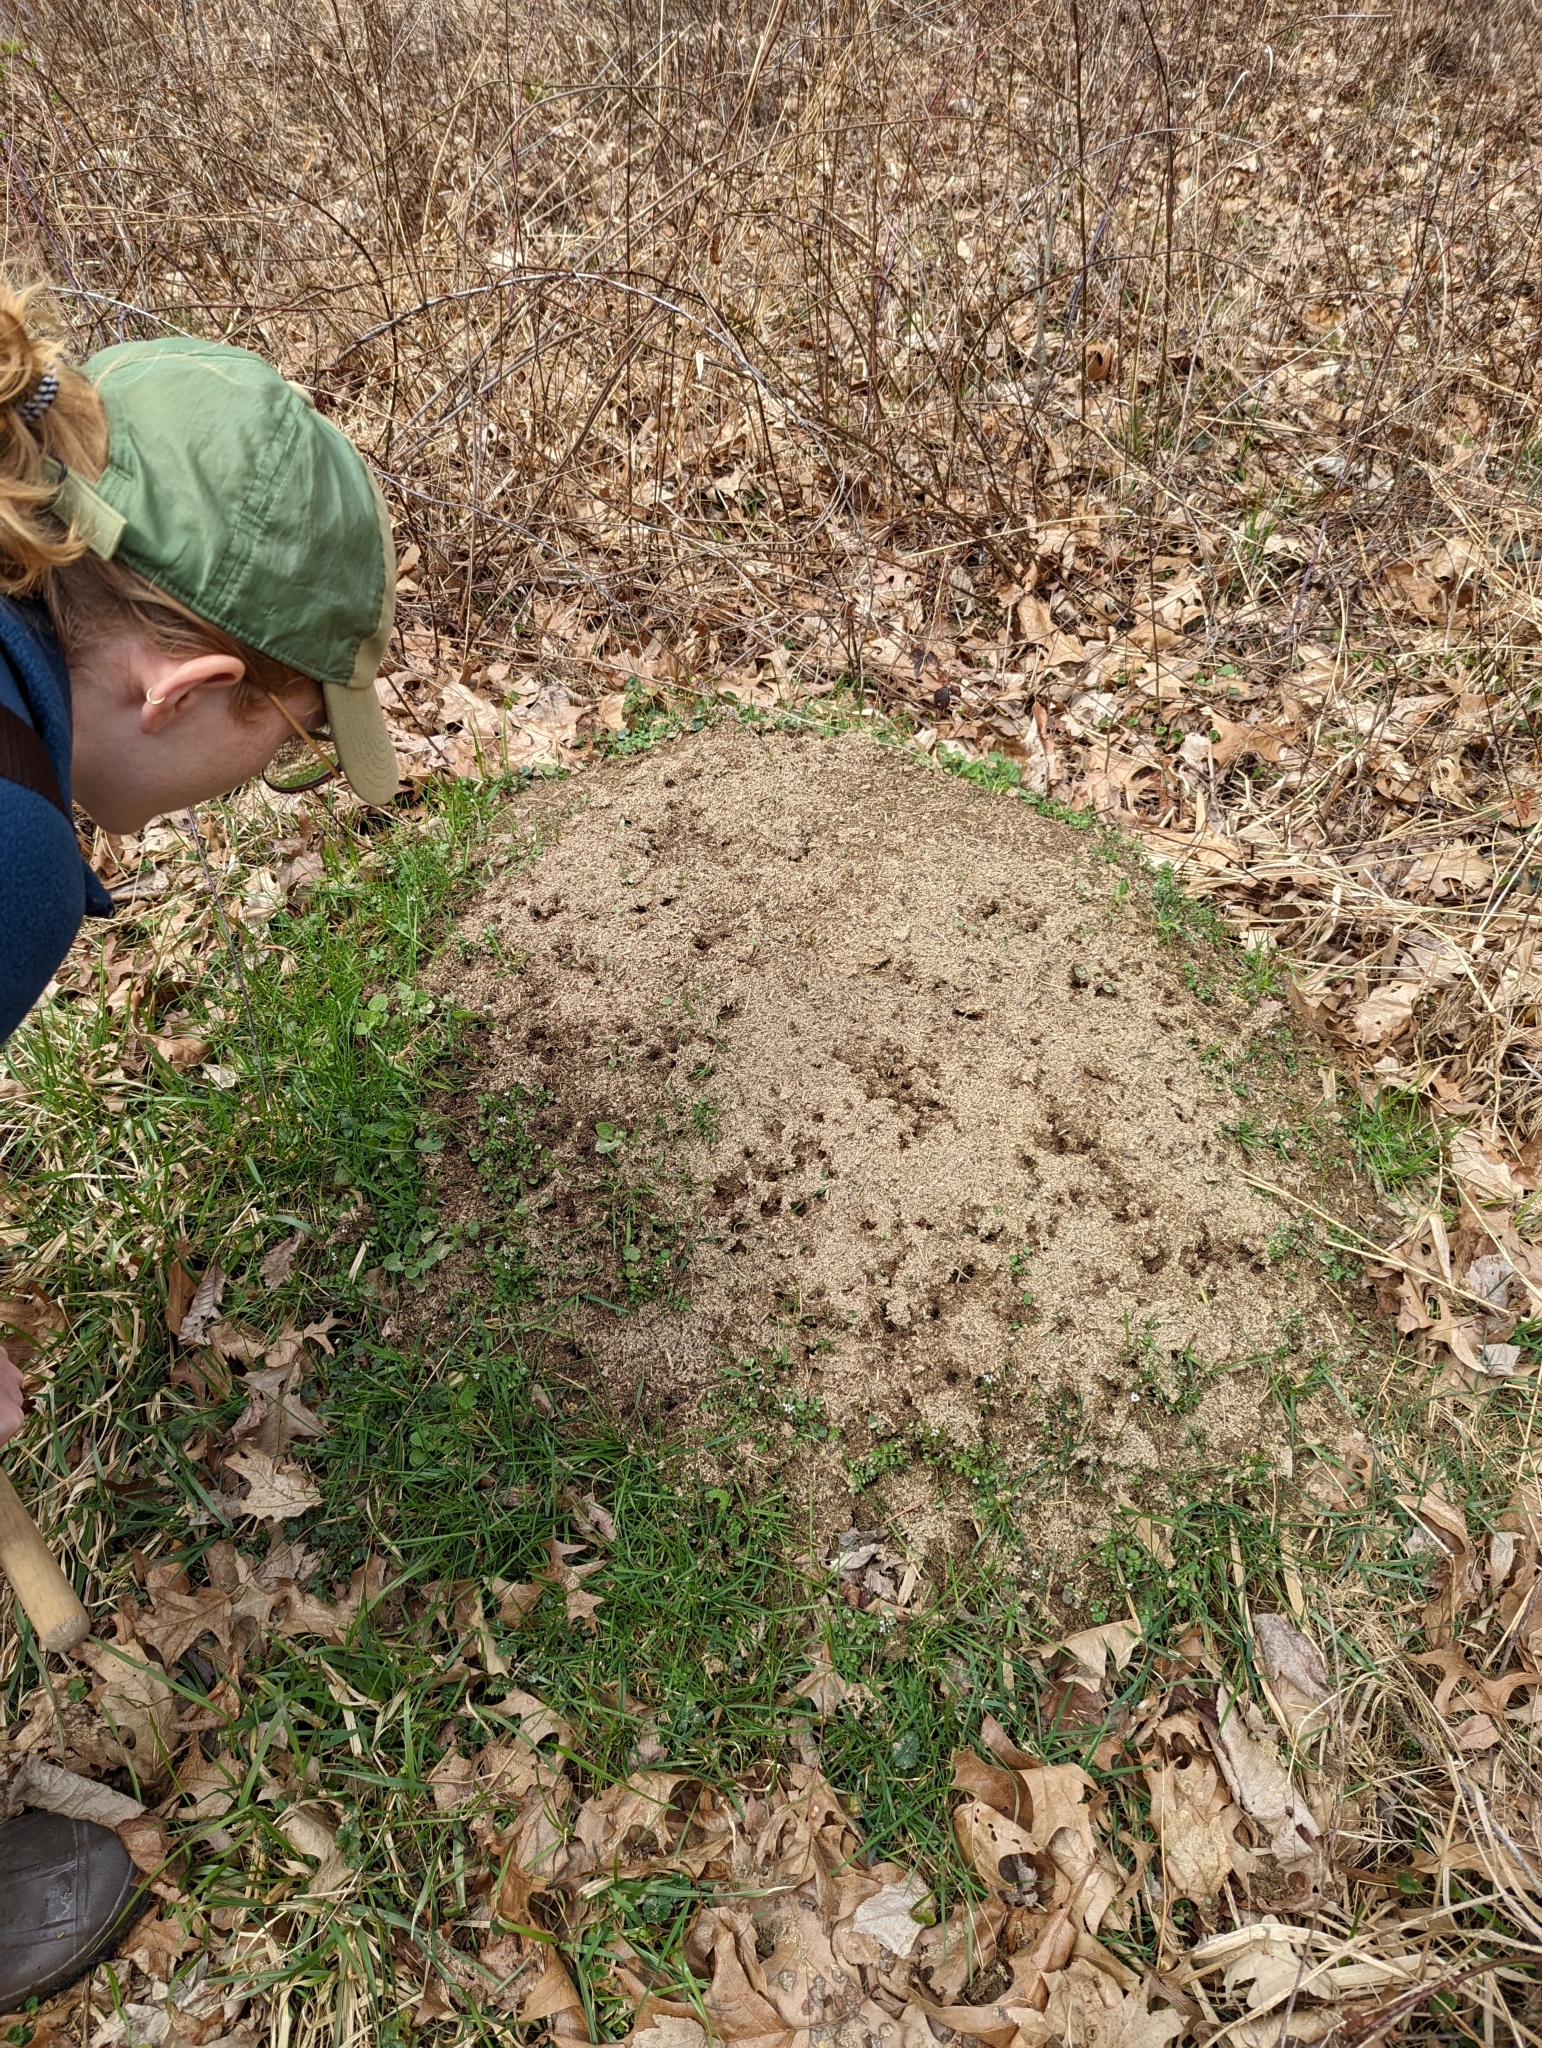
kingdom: Animalia
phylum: Arthropoda
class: Insecta
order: Hymenoptera
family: Formicidae
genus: Formica
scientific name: Formica exsectoides
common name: Allegheny mound ant
